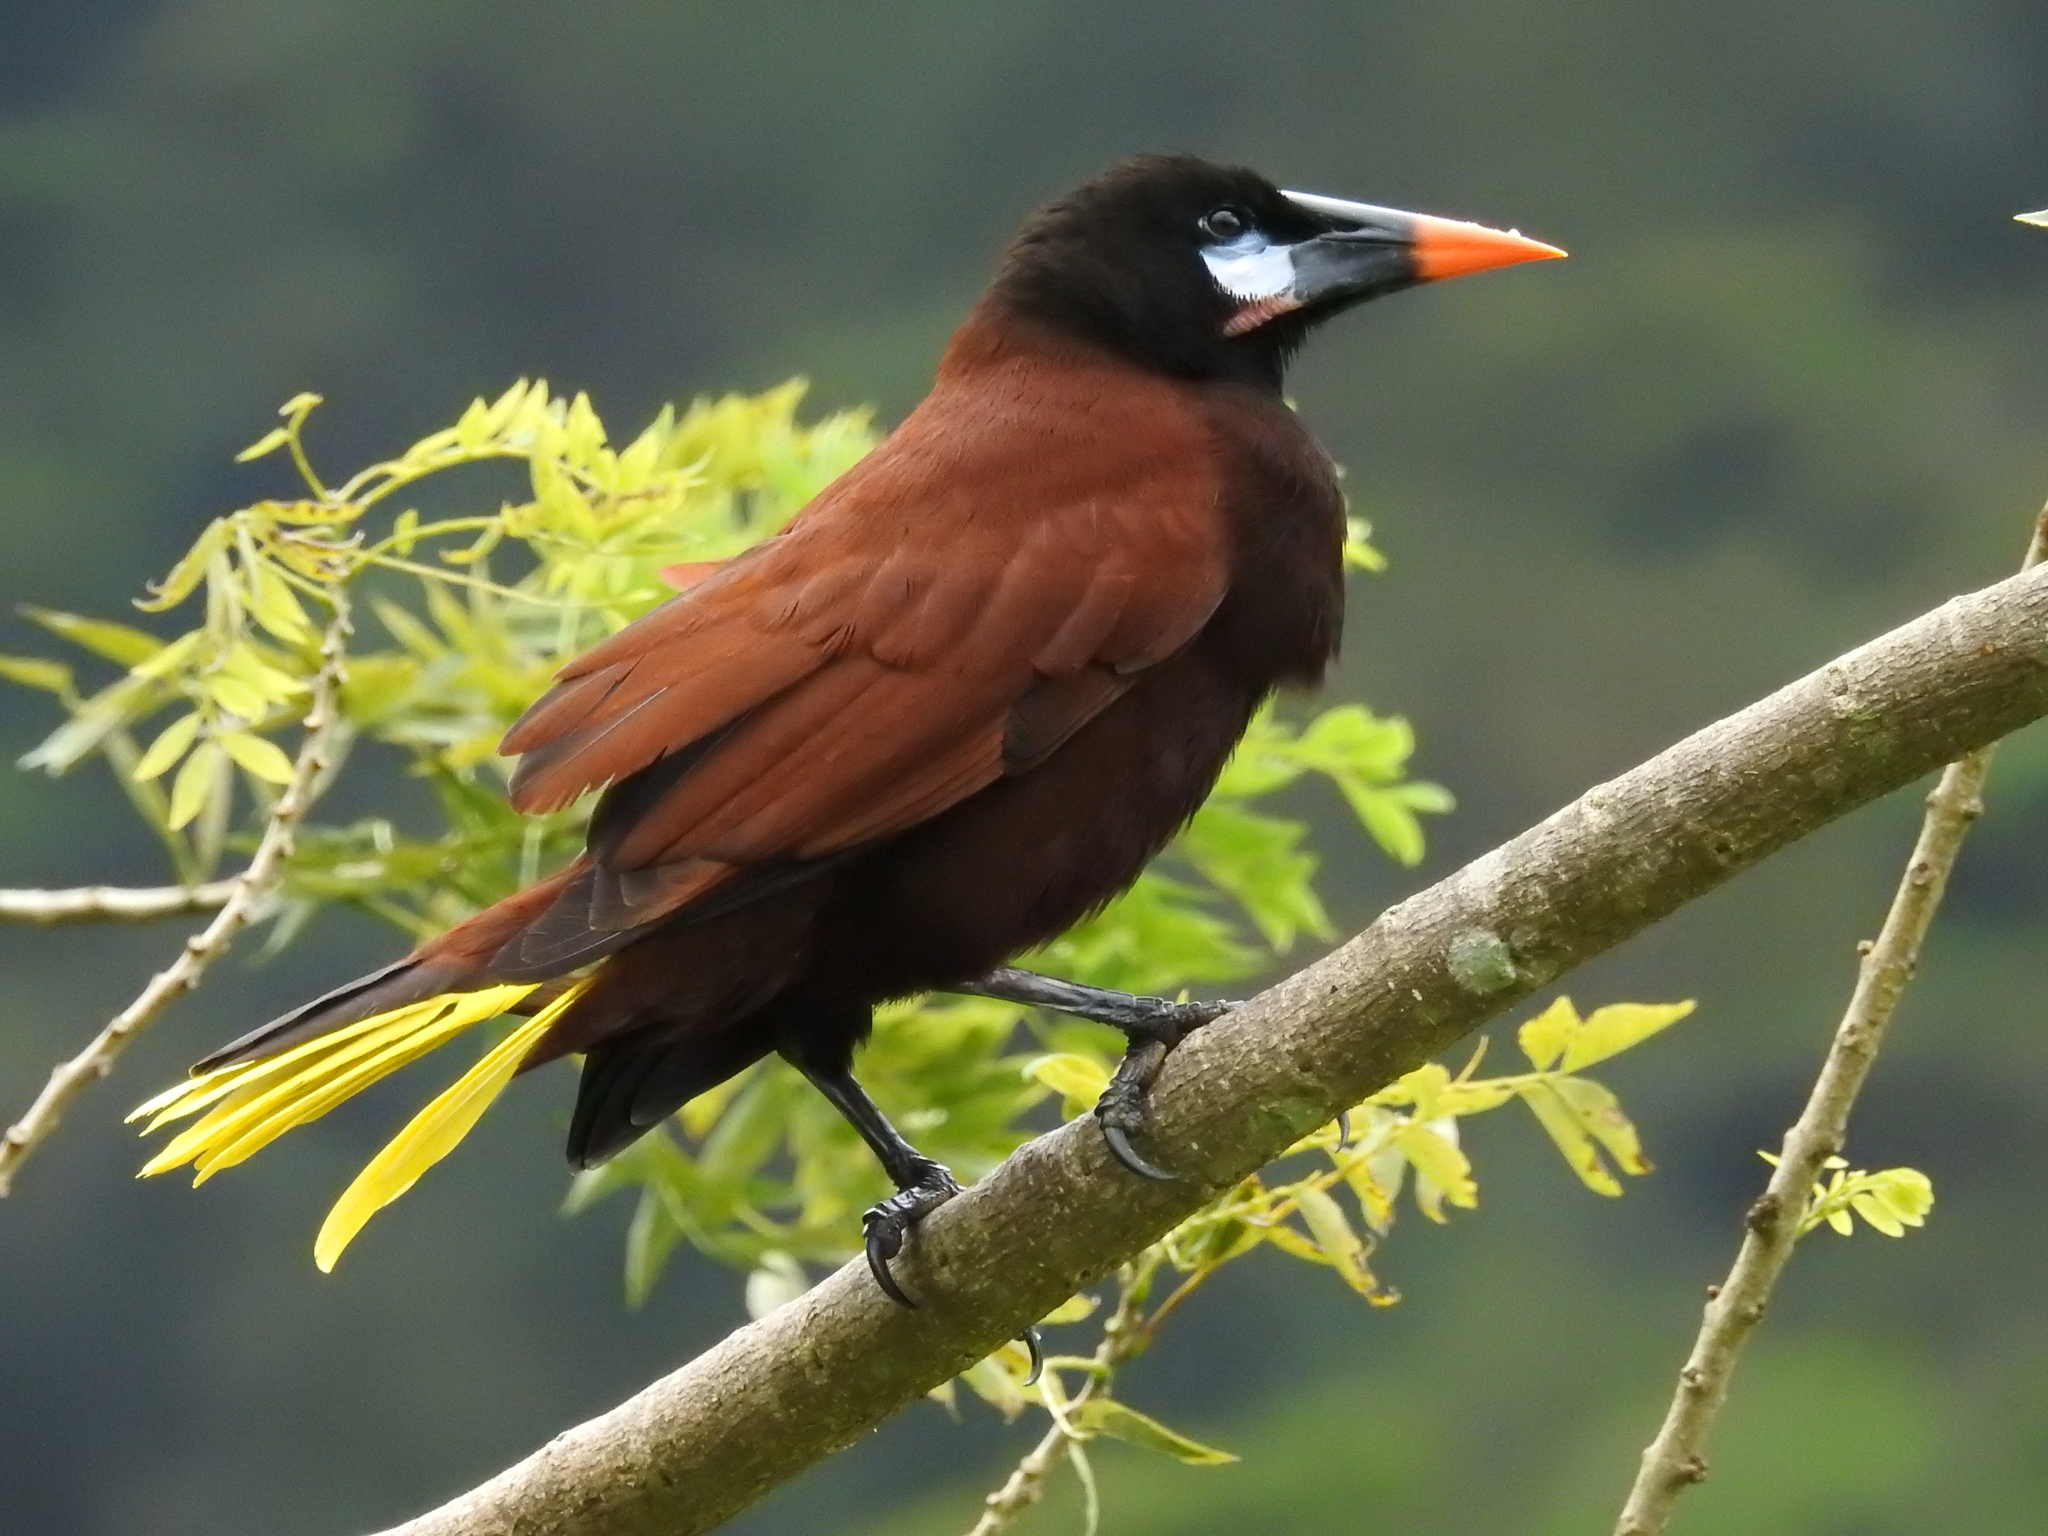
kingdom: Animalia
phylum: Chordata
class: Aves
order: Passeriformes
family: Icteridae
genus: Psarocolius
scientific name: Psarocolius montezuma
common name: Montezuma oropendola
